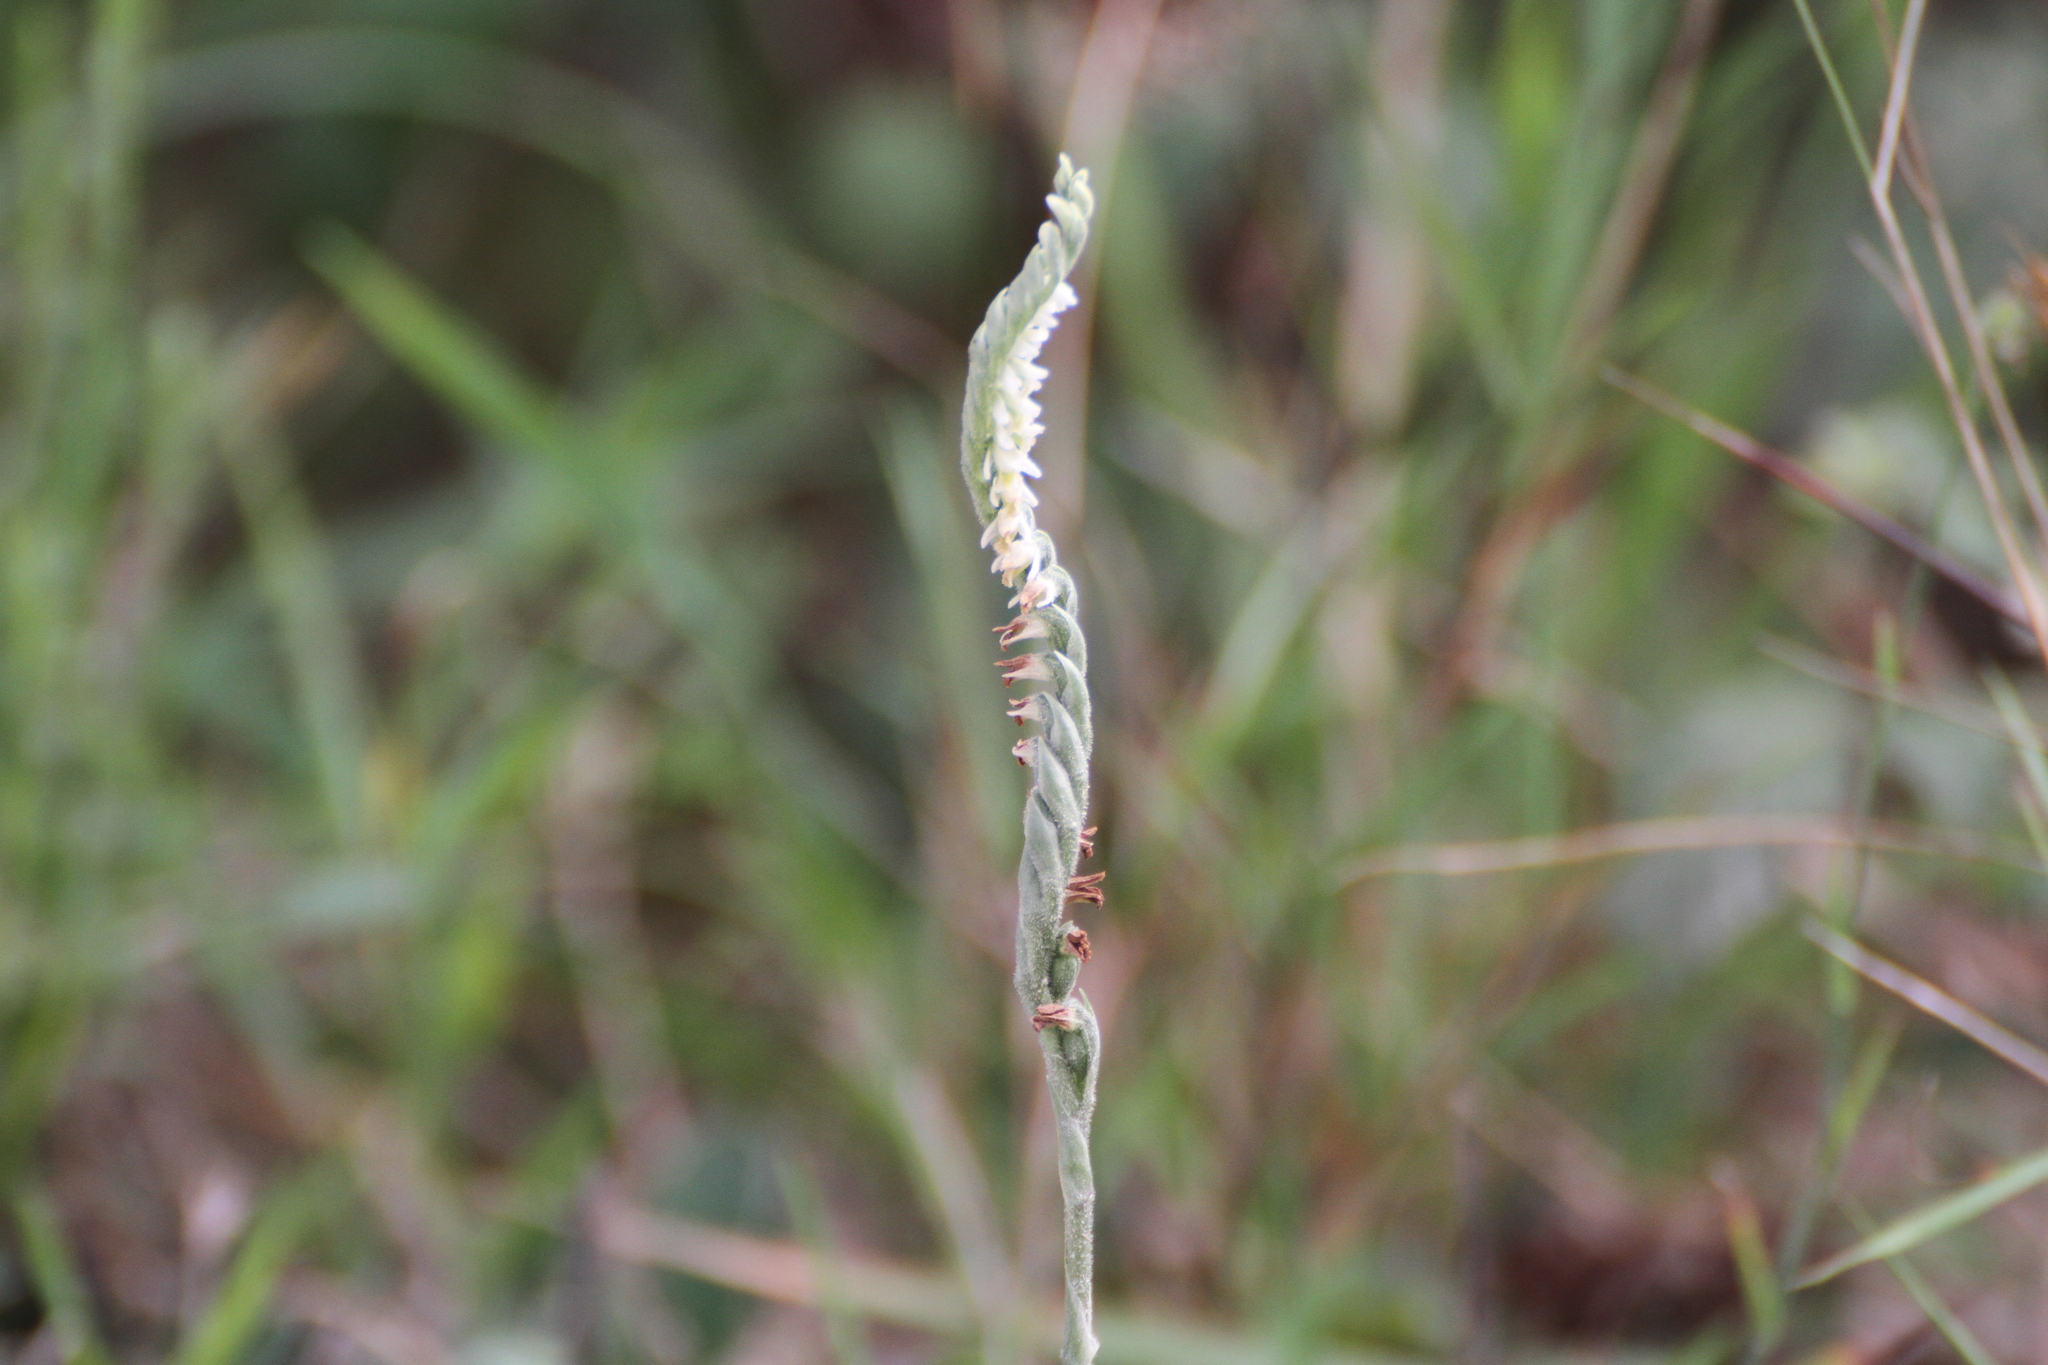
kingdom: Plantae
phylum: Tracheophyta
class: Liliopsida
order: Asparagales
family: Orchidaceae
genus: Spiranthes
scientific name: Spiranthes spiralis
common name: Autumn lady's-tresses
